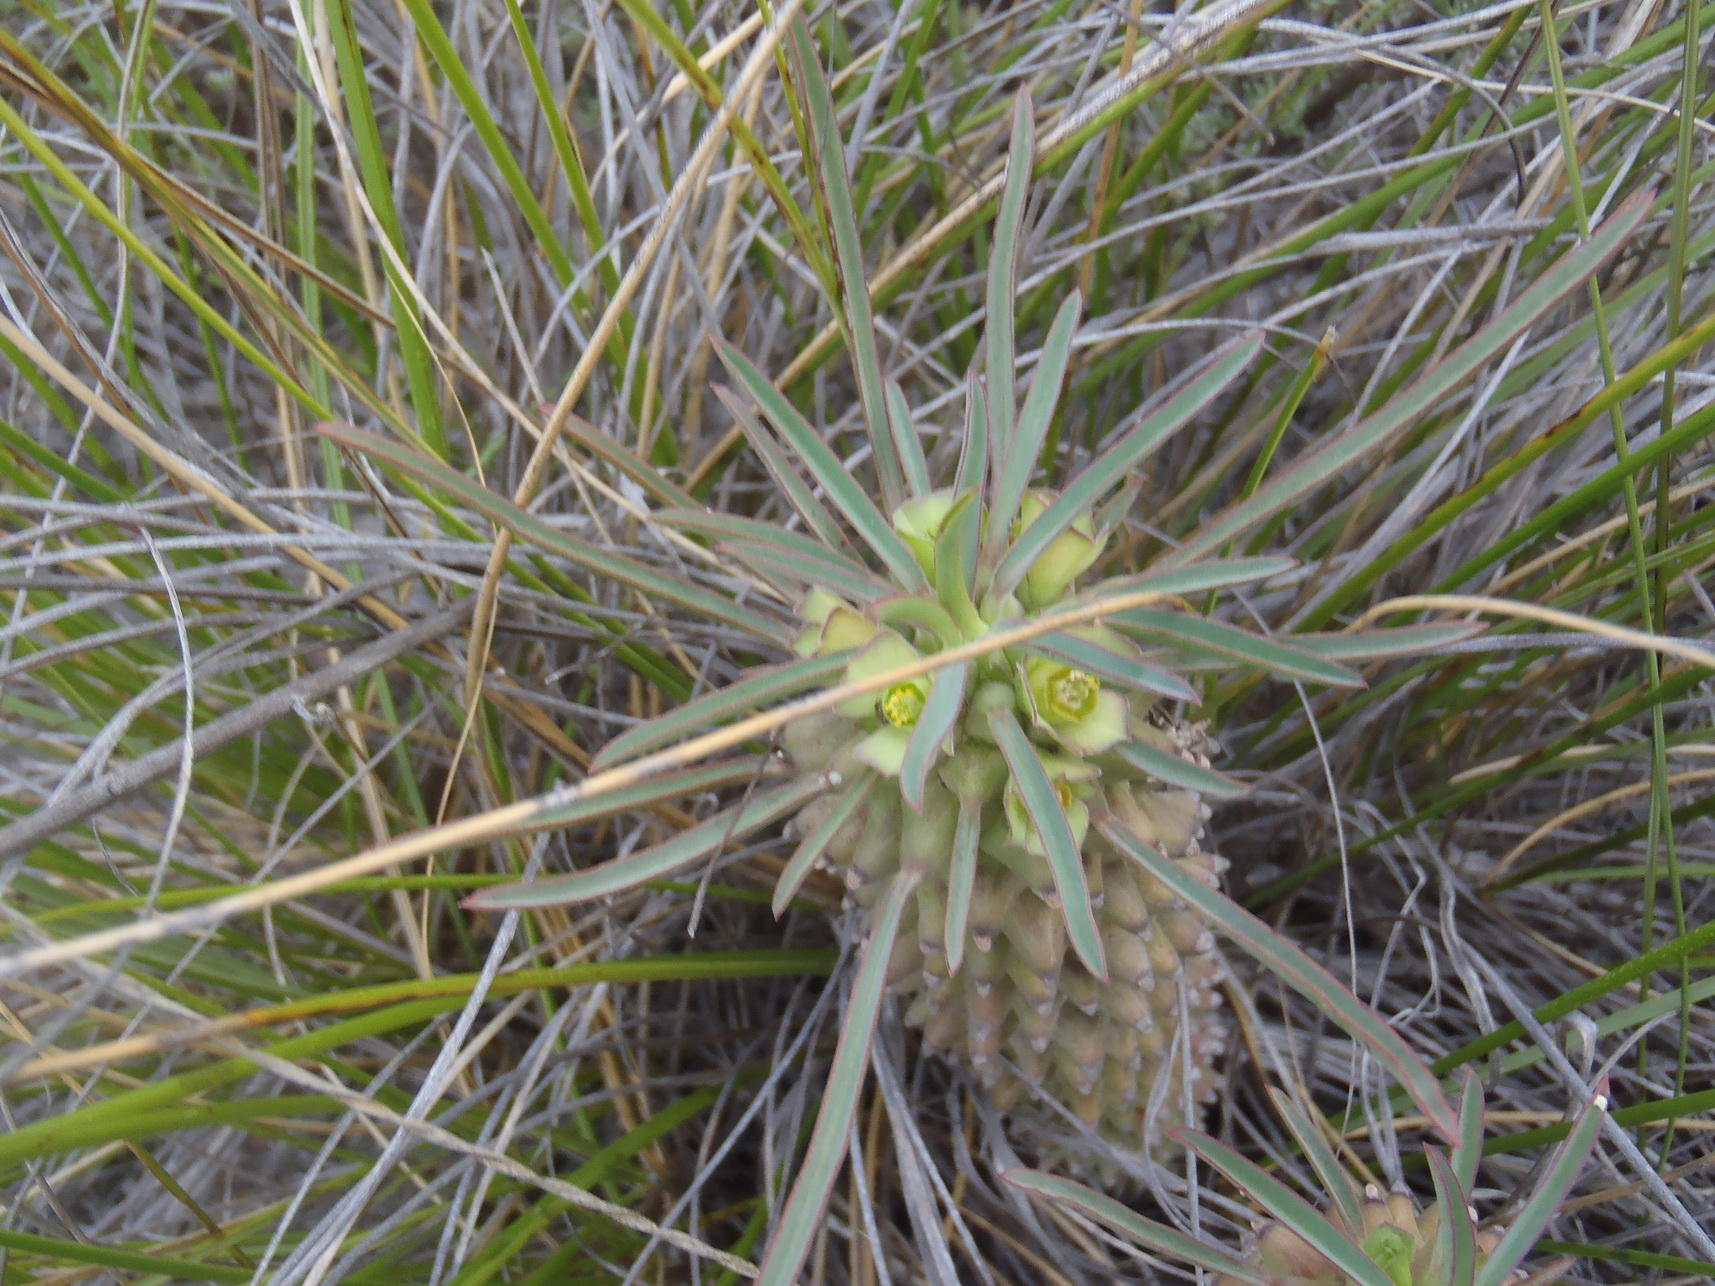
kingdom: Plantae
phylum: Tracheophyta
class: Magnoliopsida
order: Malpighiales
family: Euphorbiaceae
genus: Euphorbia
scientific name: Euphorbia clandestina
